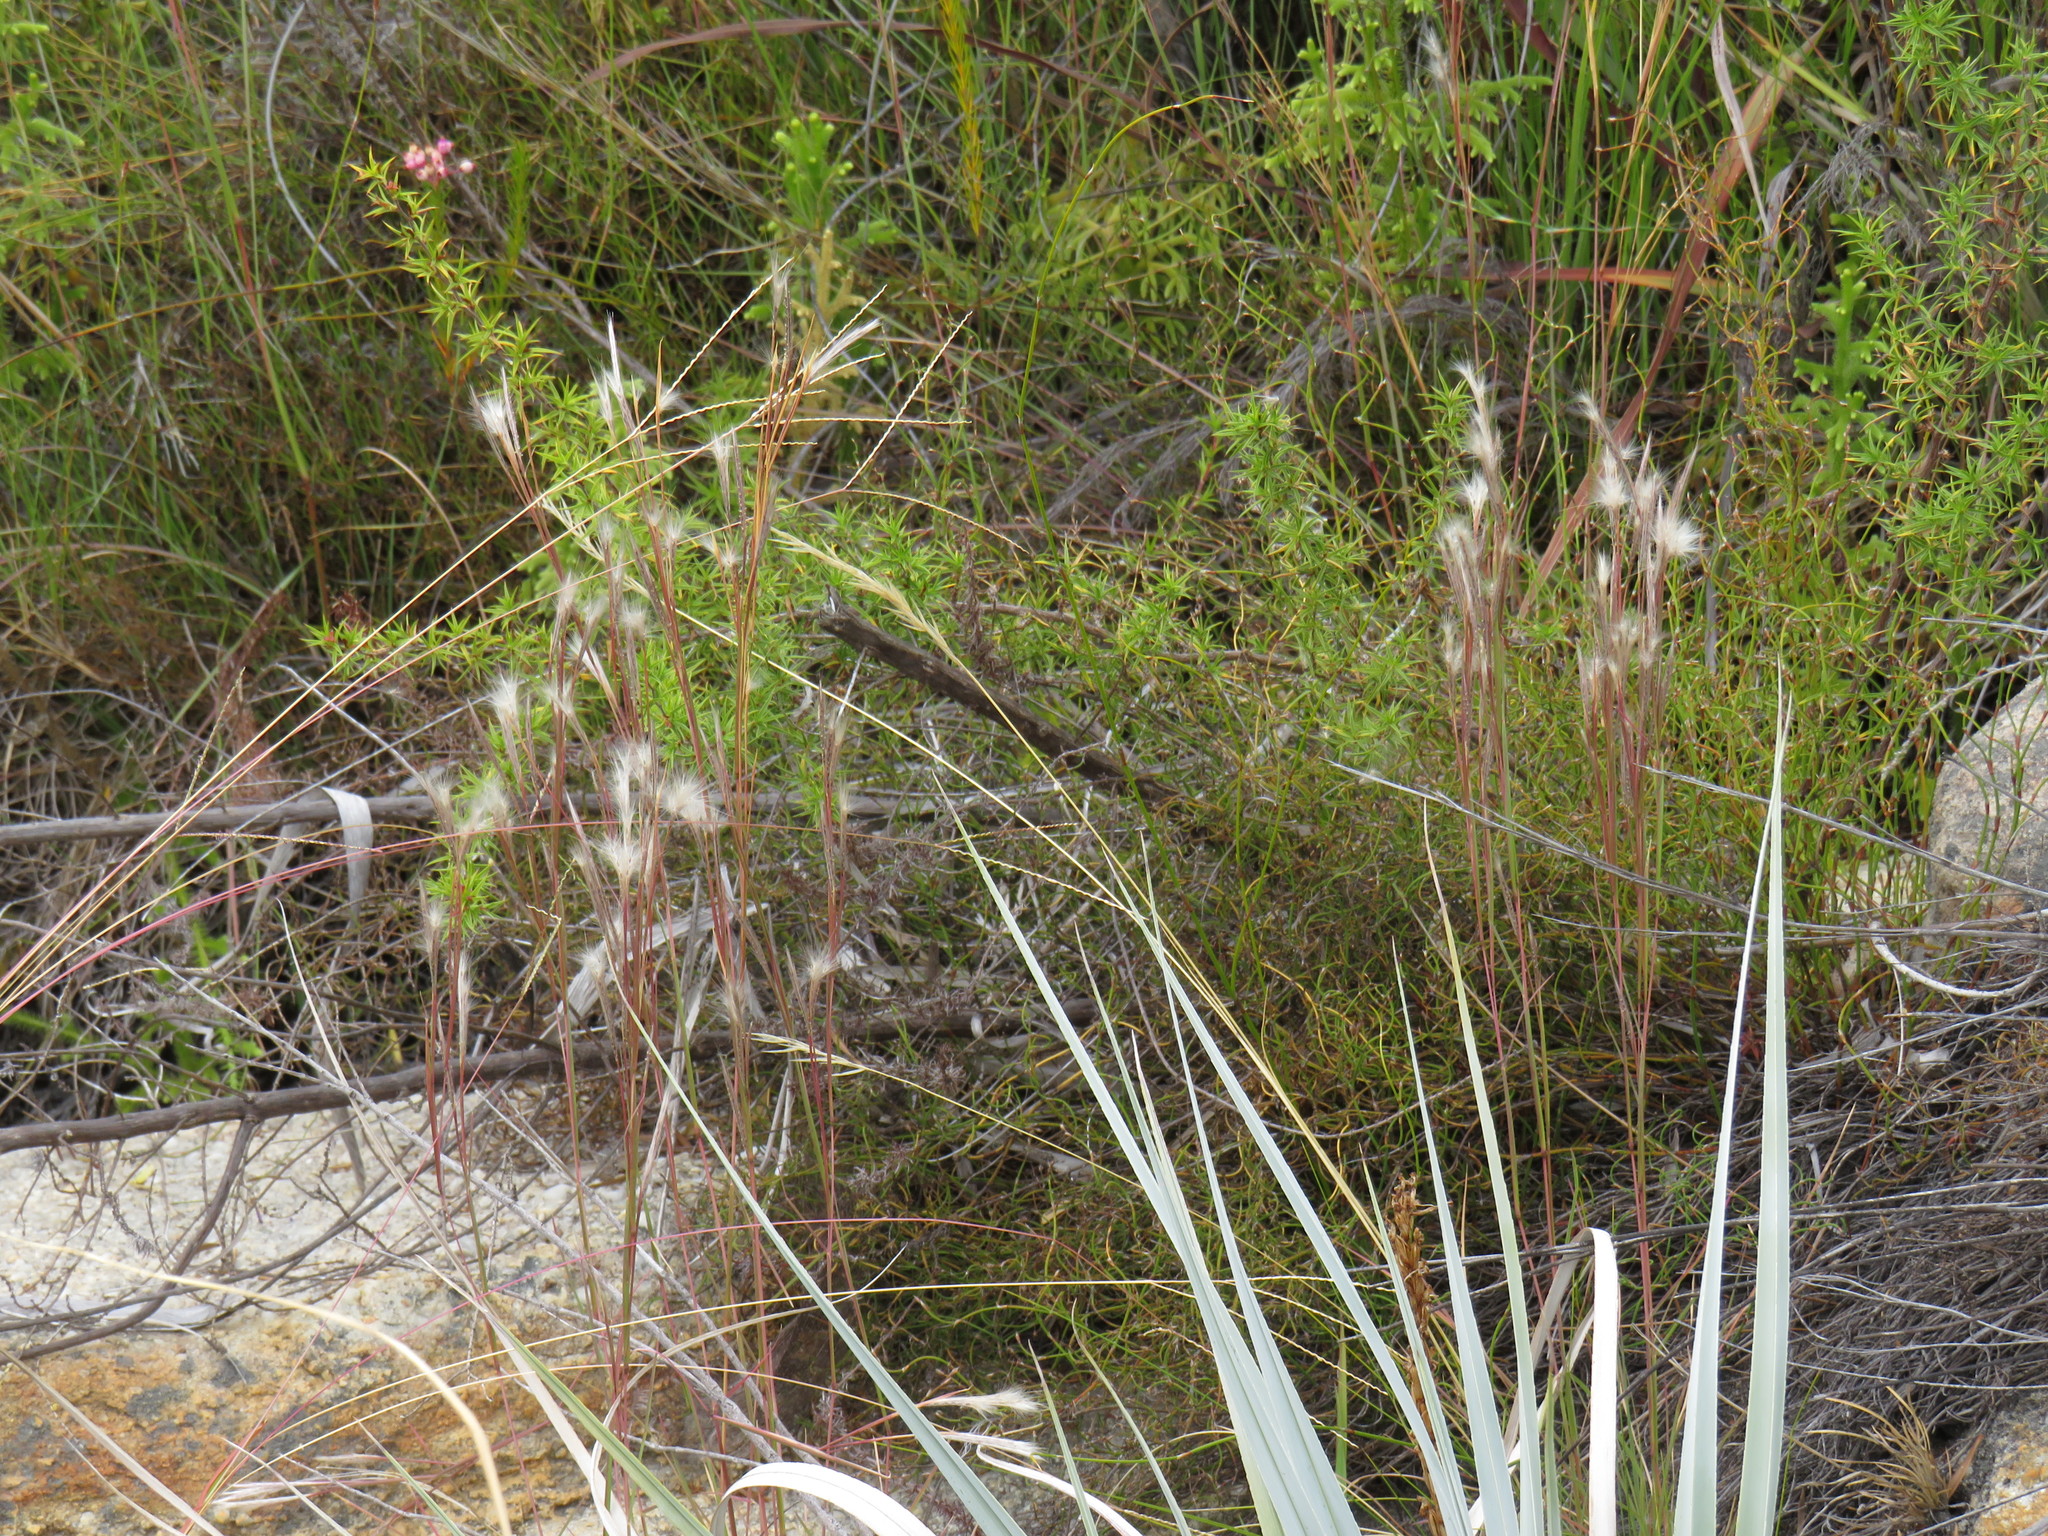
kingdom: Plantae
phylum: Tracheophyta
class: Liliopsida
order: Poales
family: Poaceae
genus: Andropogon
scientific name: Andropogon eucomus
